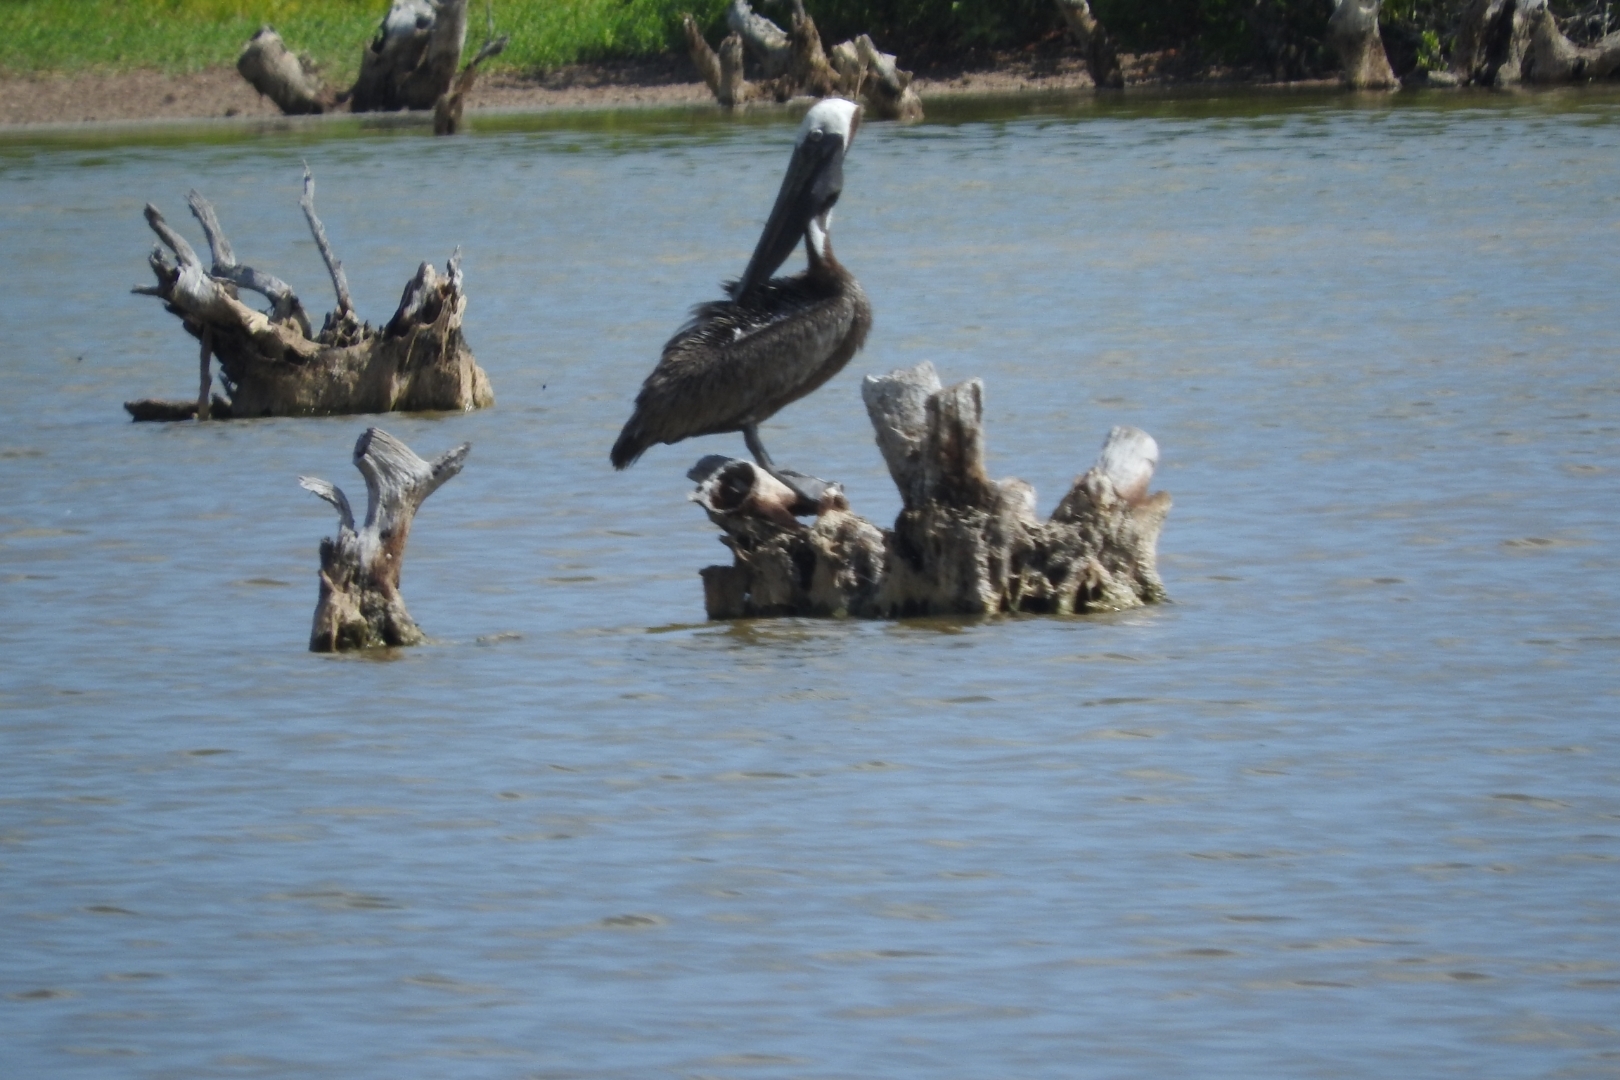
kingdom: Animalia
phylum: Chordata
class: Aves
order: Pelecaniformes
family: Pelecanidae
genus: Pelecanus
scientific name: Pelecanus occidentalis
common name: Brown pelican
